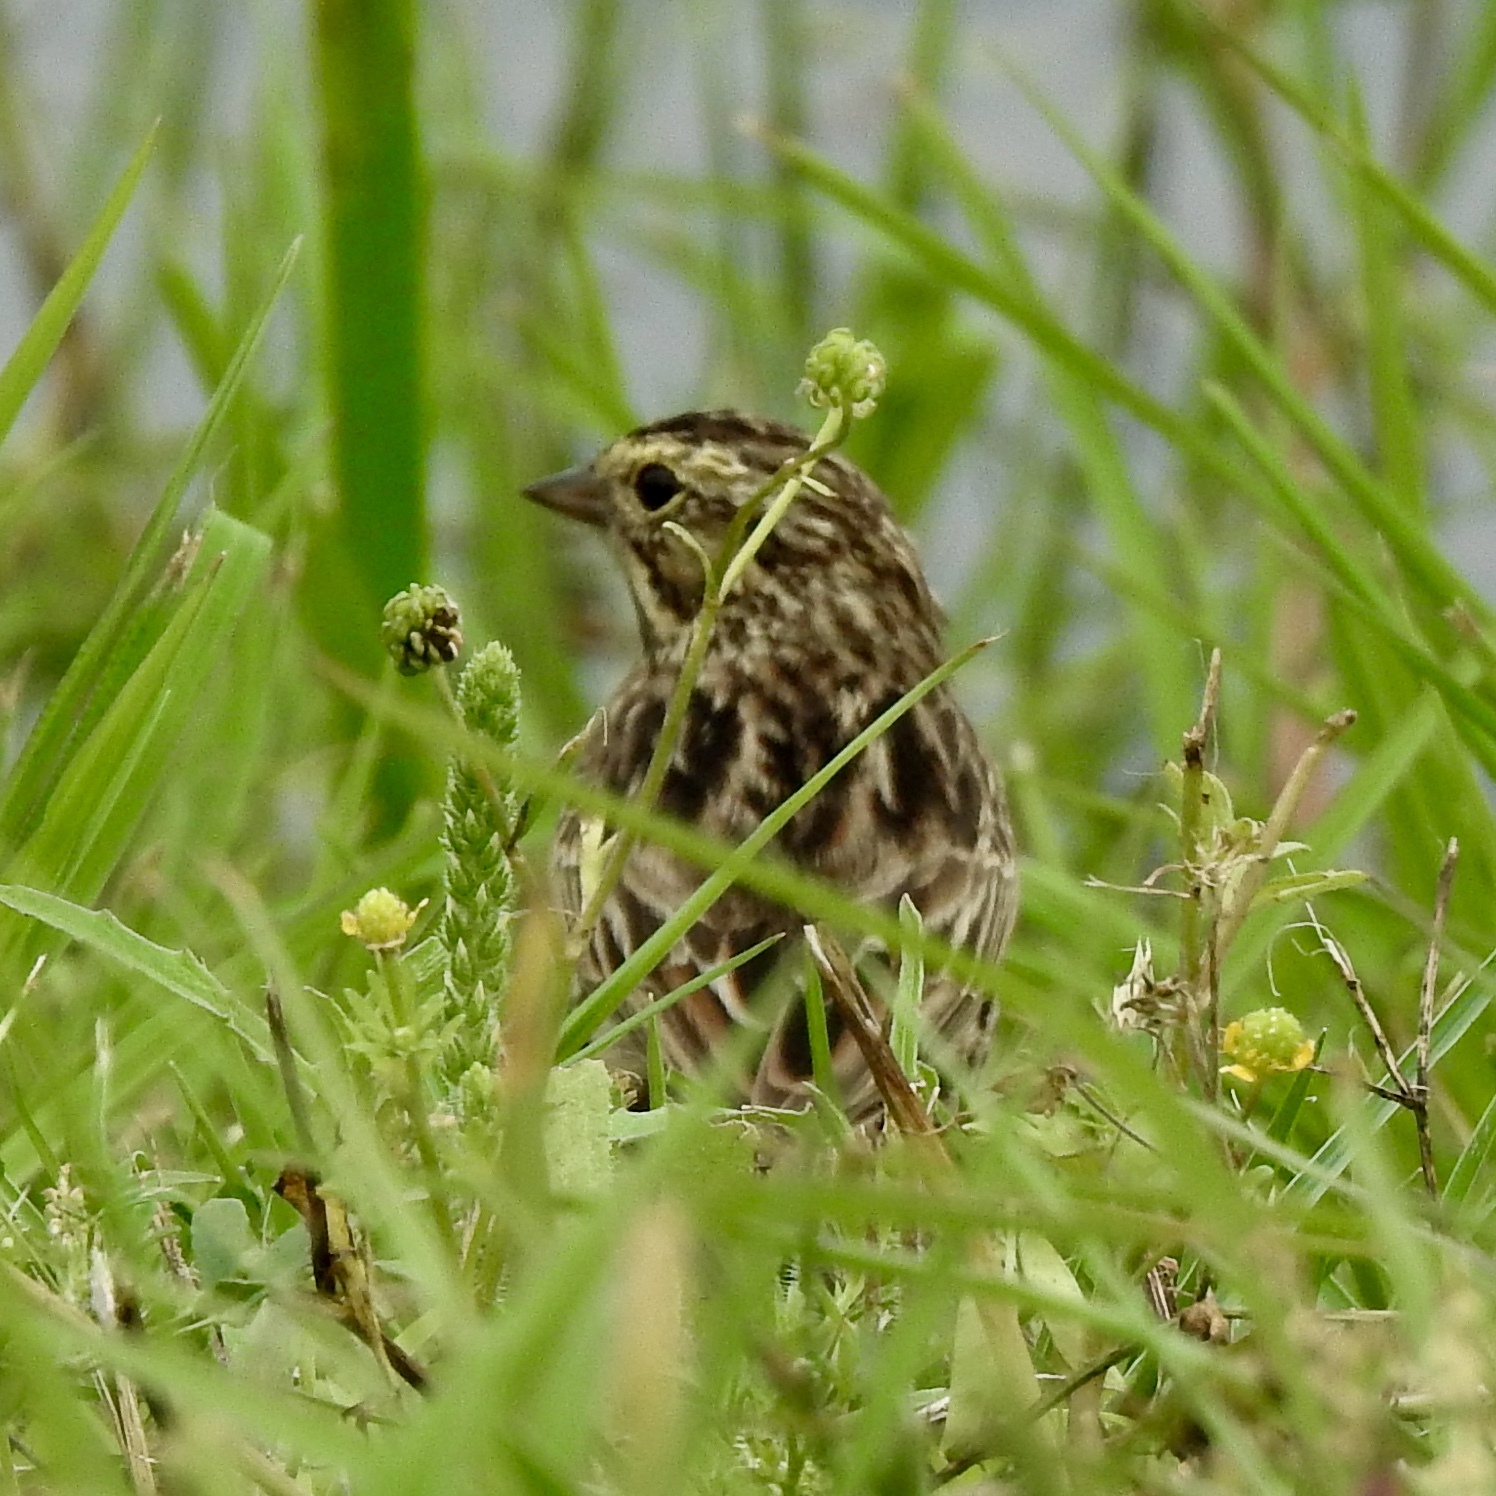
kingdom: Animalia
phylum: Chordata
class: Aves
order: Passeriformes
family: Passerellidae
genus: Passerculus
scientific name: Passerculus sandwichensis
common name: Savannah sparrow
